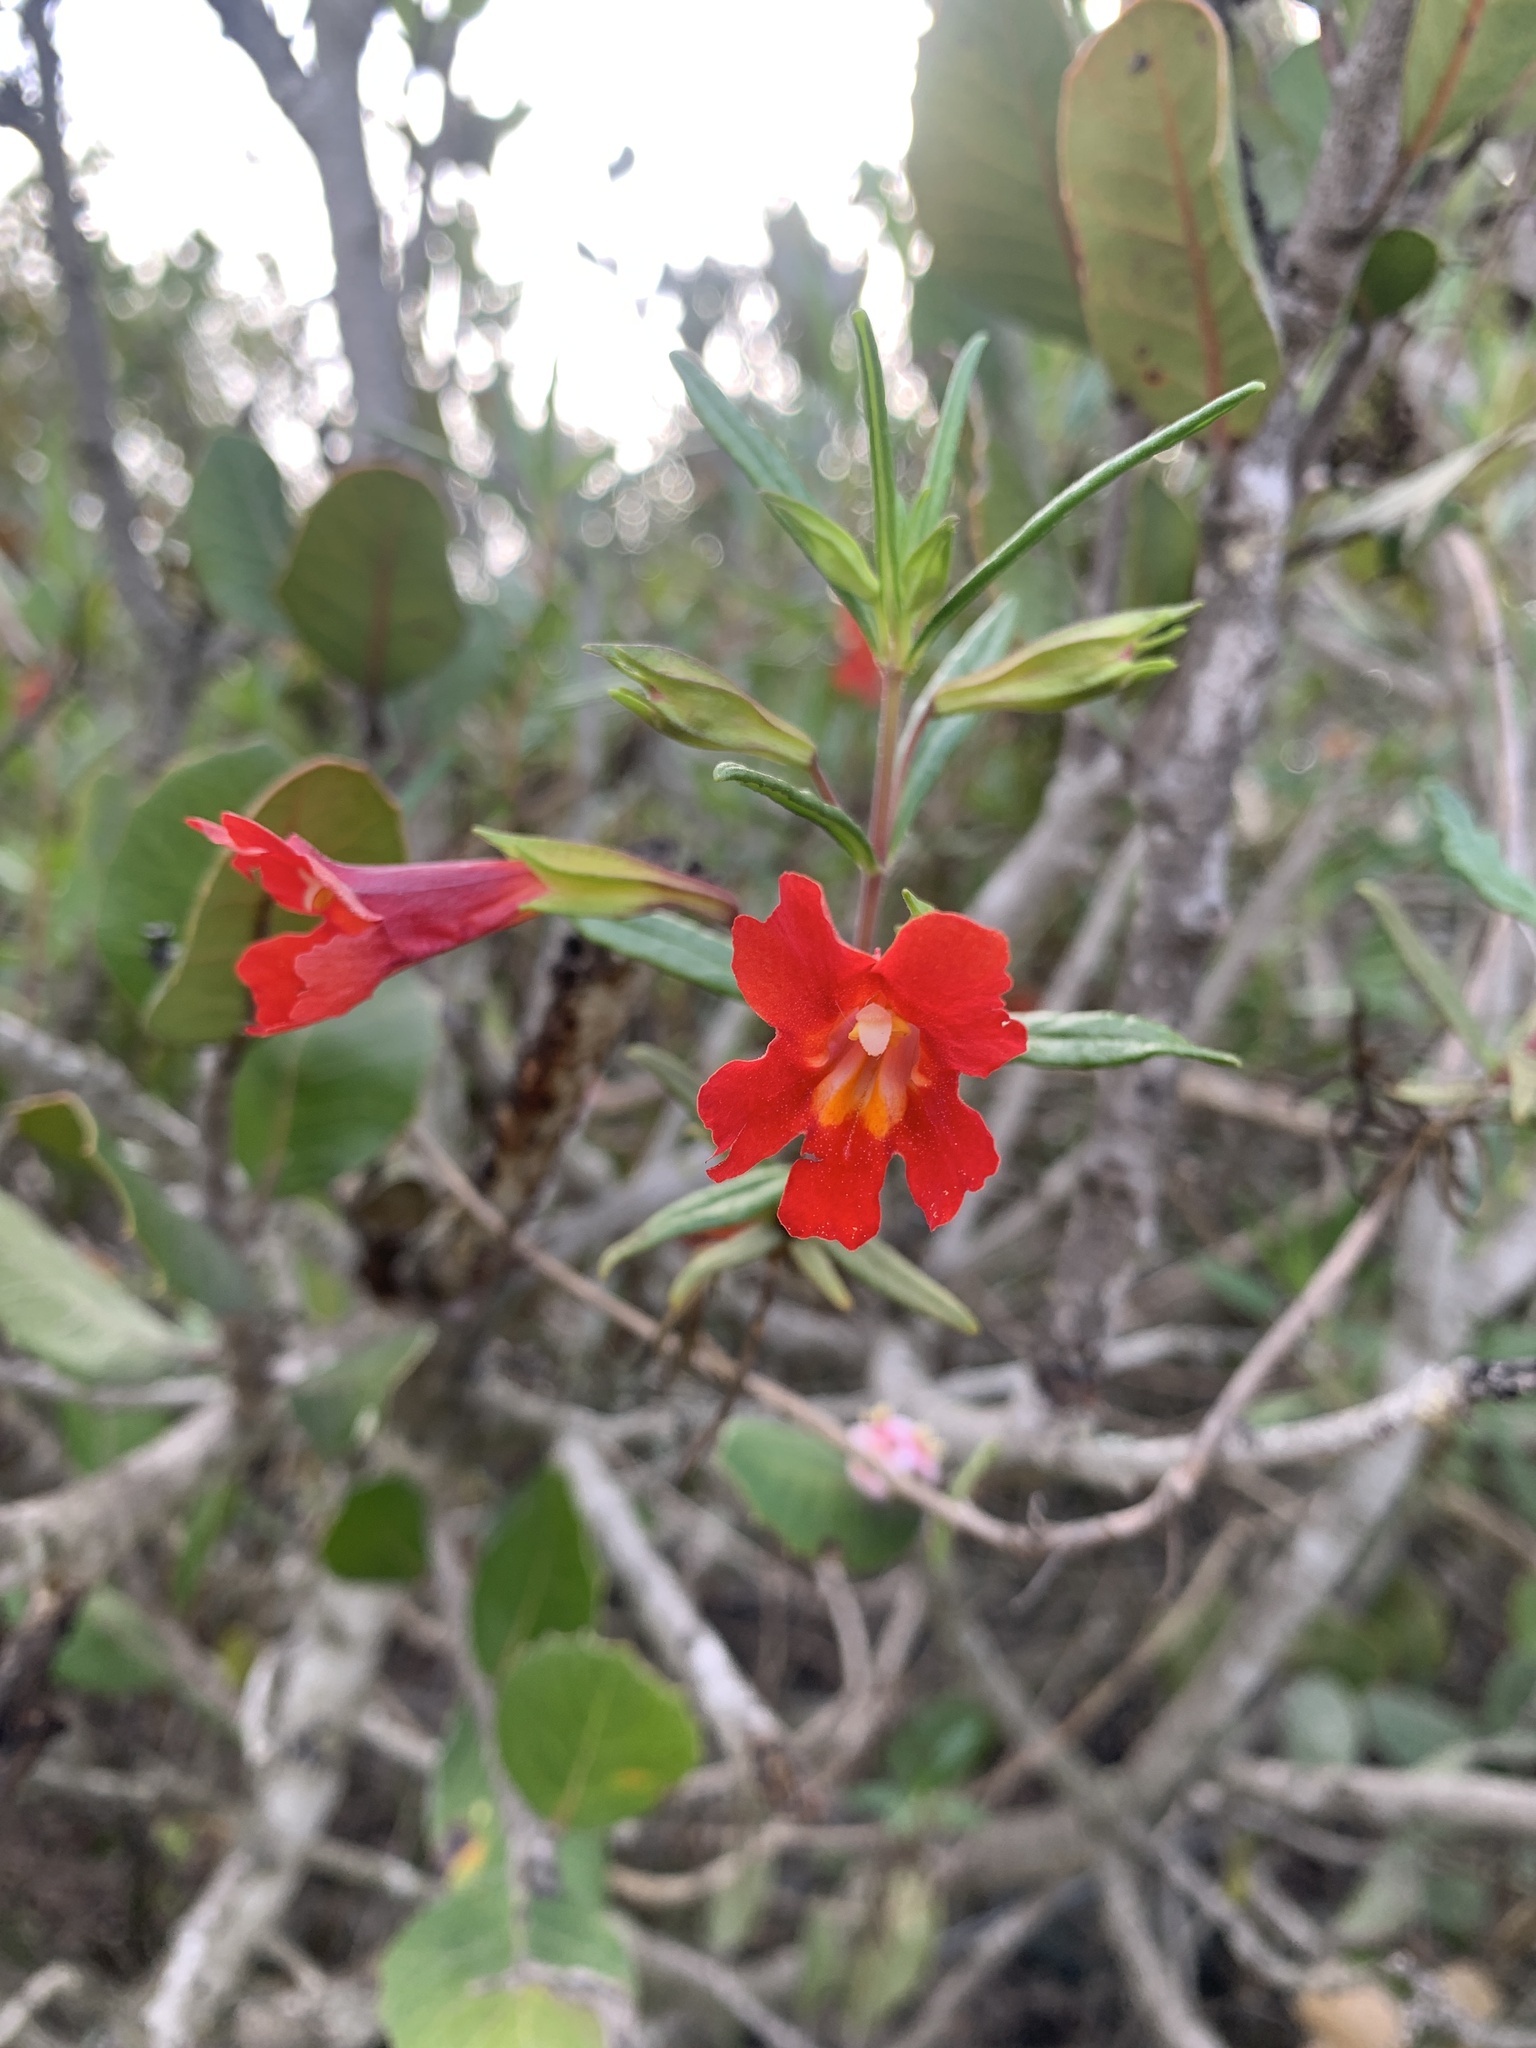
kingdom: Plantae
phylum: Tracheophyta
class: Magnoliopsida
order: Lamiales
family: Phrymaceae
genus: Diplacus
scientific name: Diplacus puniceus
